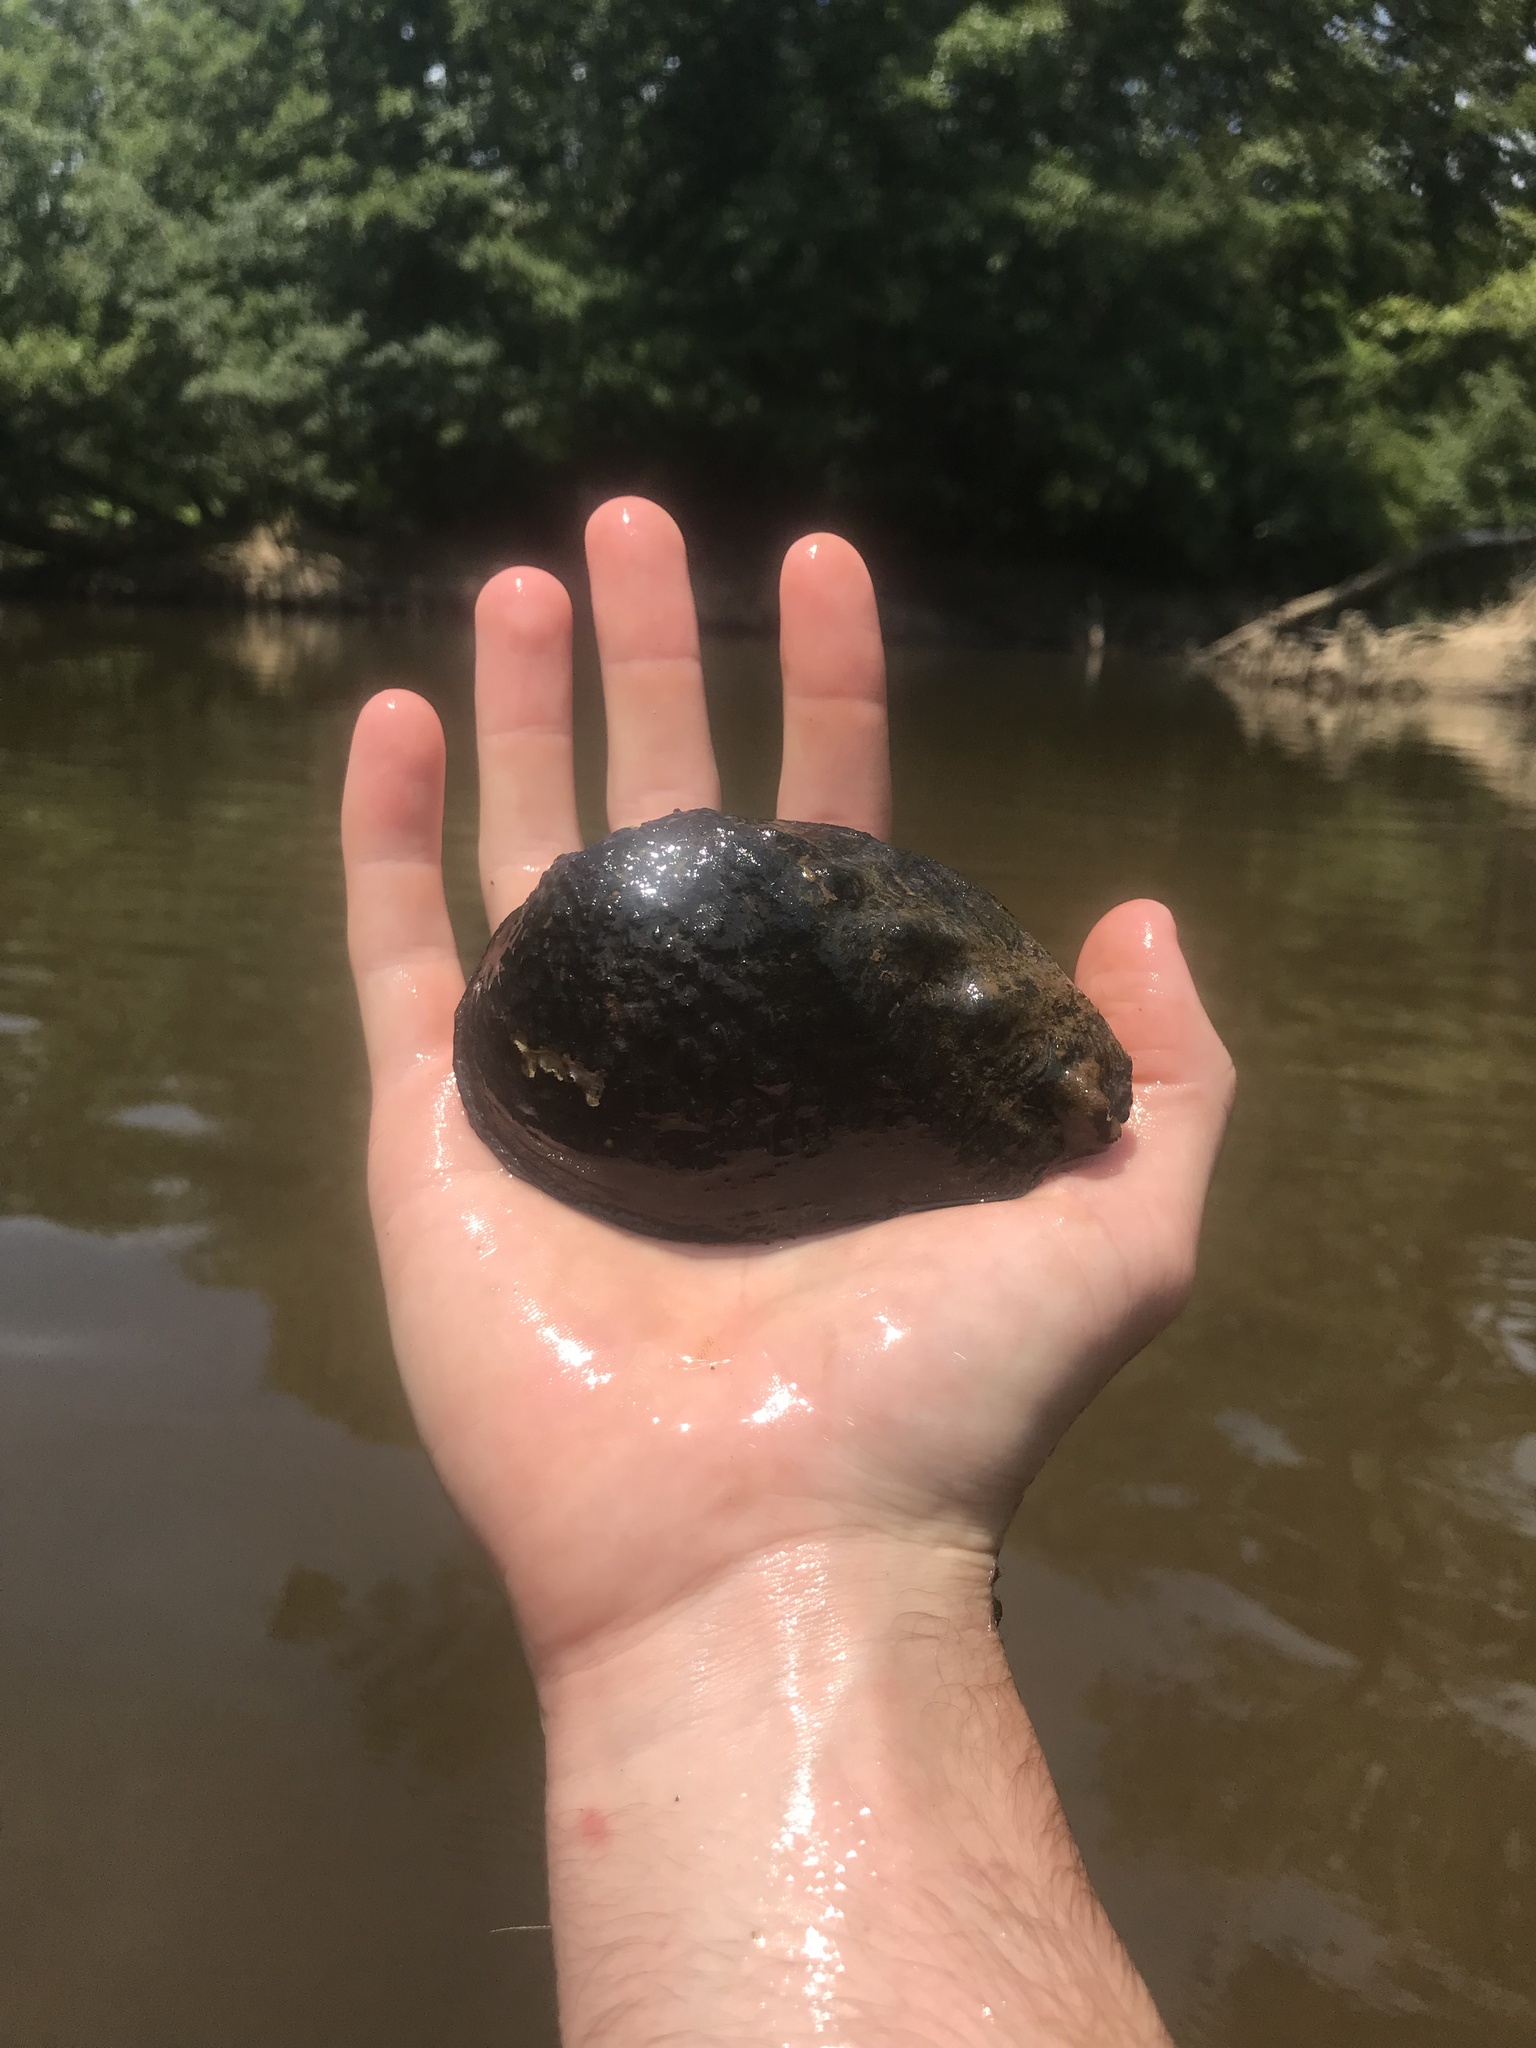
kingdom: Animalia
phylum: Mollusca
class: Bivalvia
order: Unionida
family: Unionidae
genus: Tritogonia
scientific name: Tritogonia verrucosa
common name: Pistolgrip
